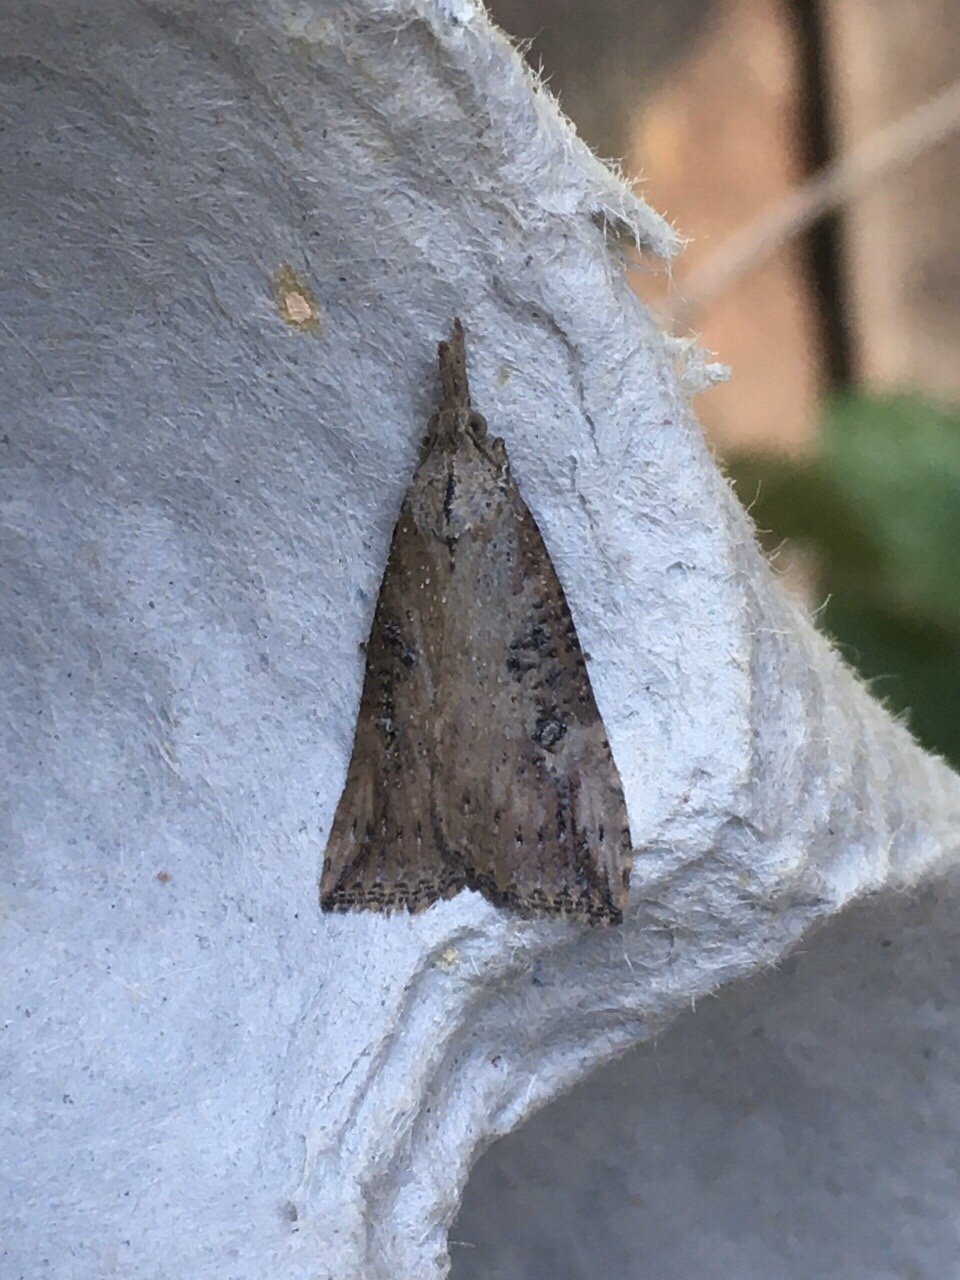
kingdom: Animalia
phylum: Arthropoda
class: Insecta
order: Lepidoptera
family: Erebidae
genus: Hypena
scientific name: Hypena humuli
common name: Hop vine snout
